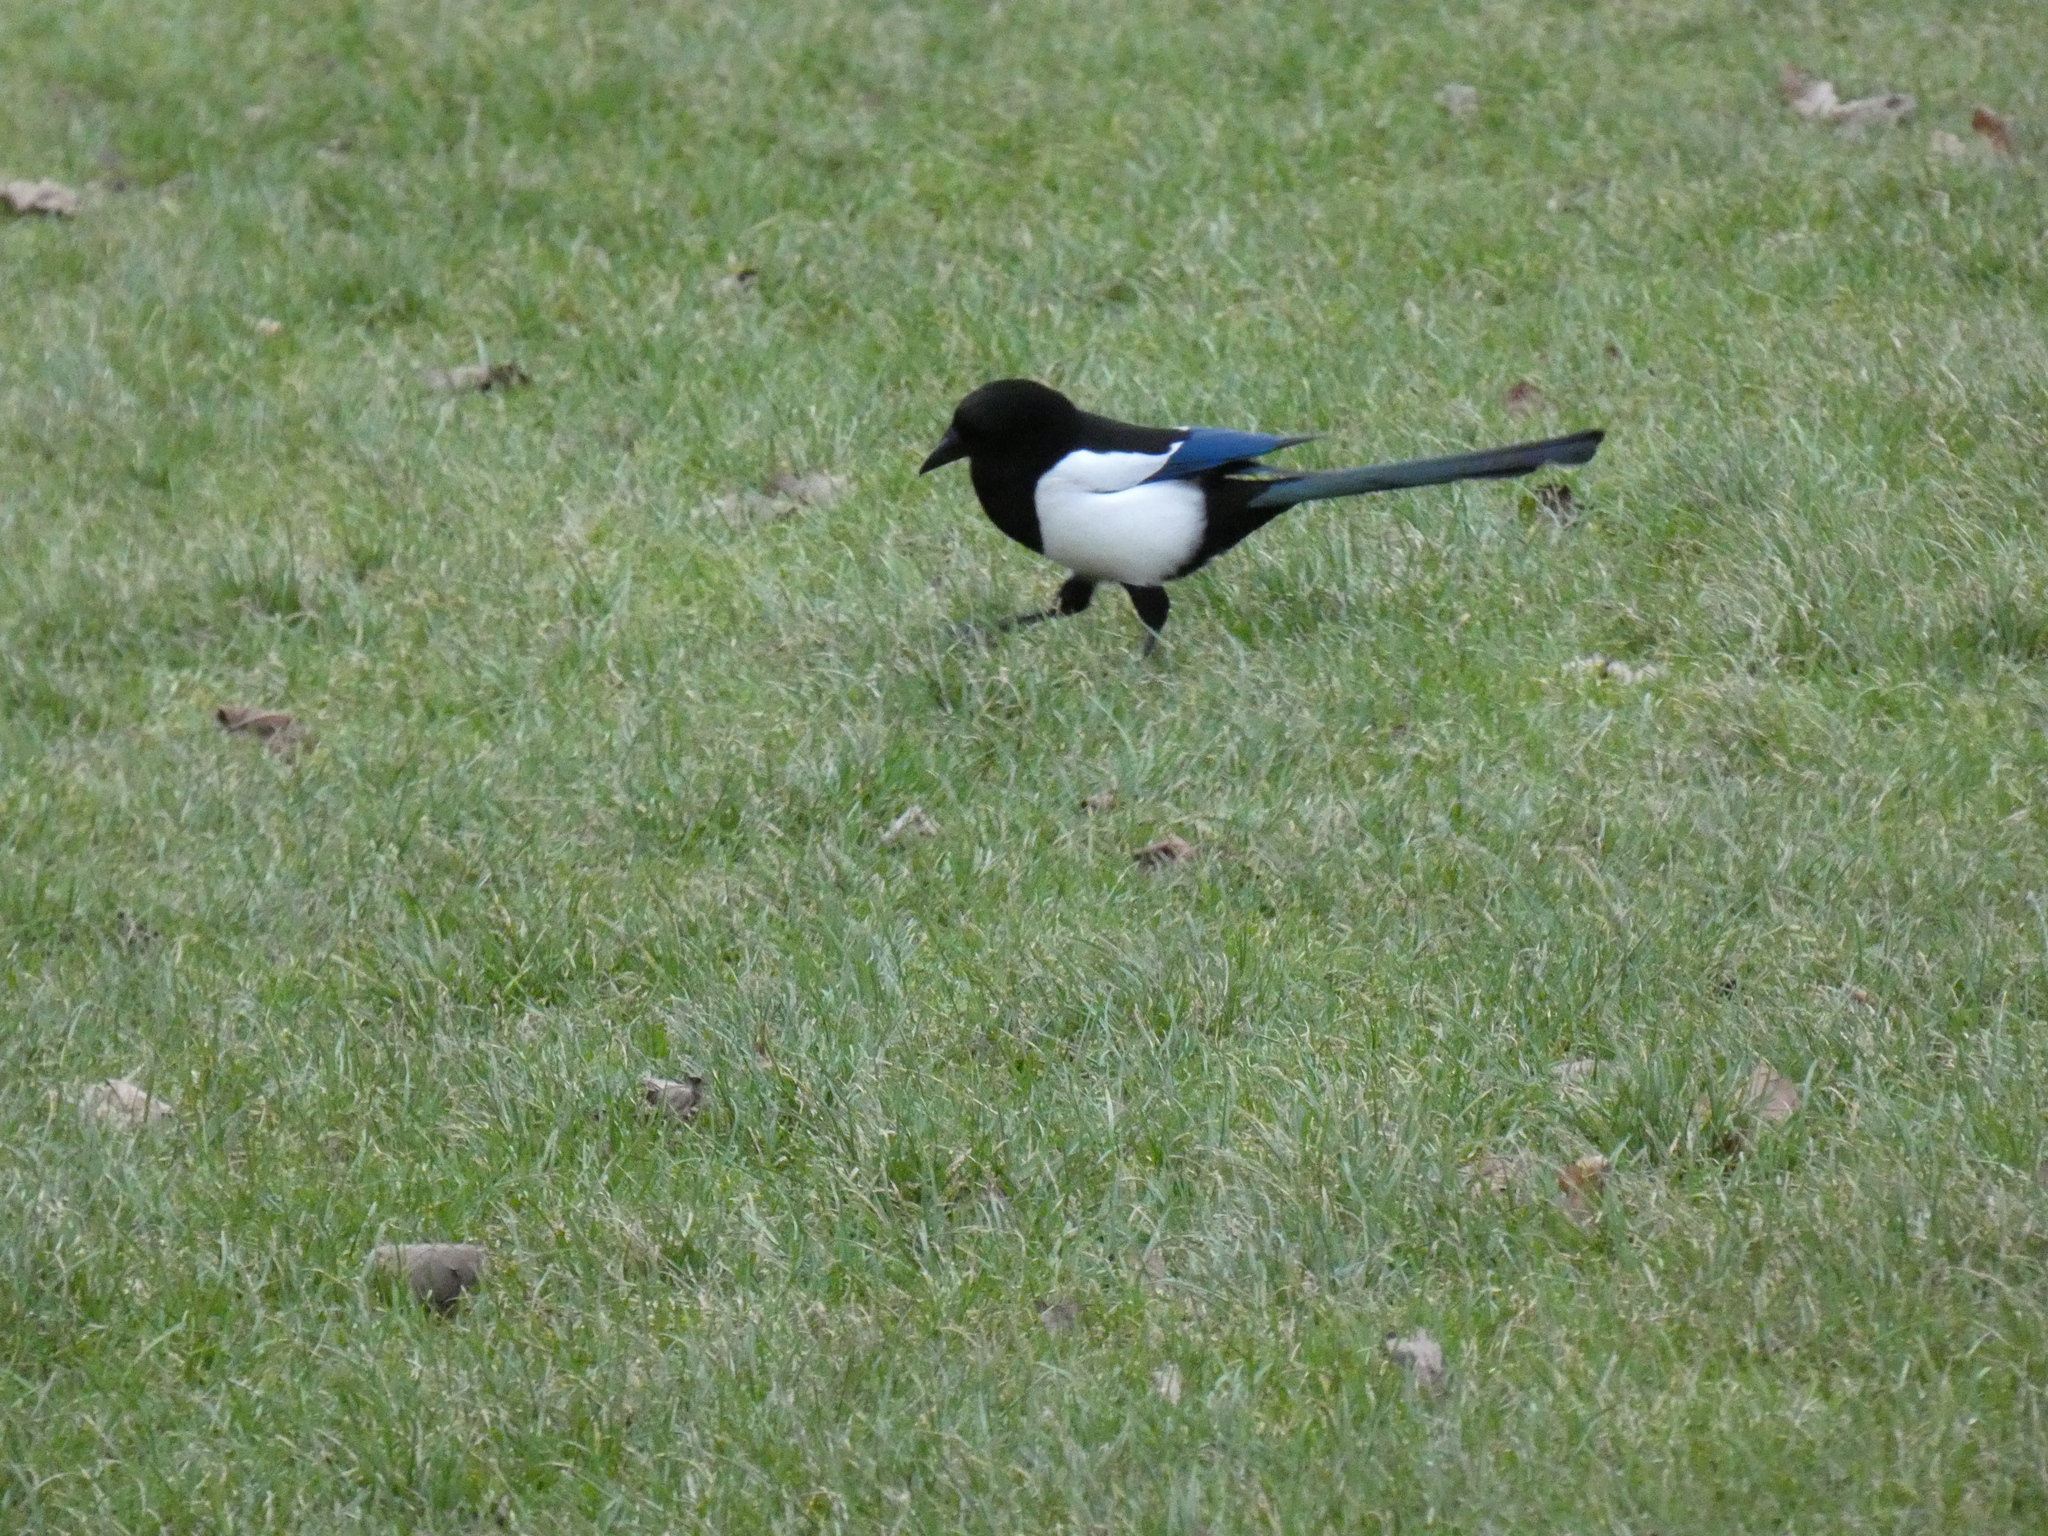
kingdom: Animalia
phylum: Chordata
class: Aves
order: Passeriformes
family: Corvidae
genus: Pica
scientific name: Pica pica
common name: Eurasian magpie
